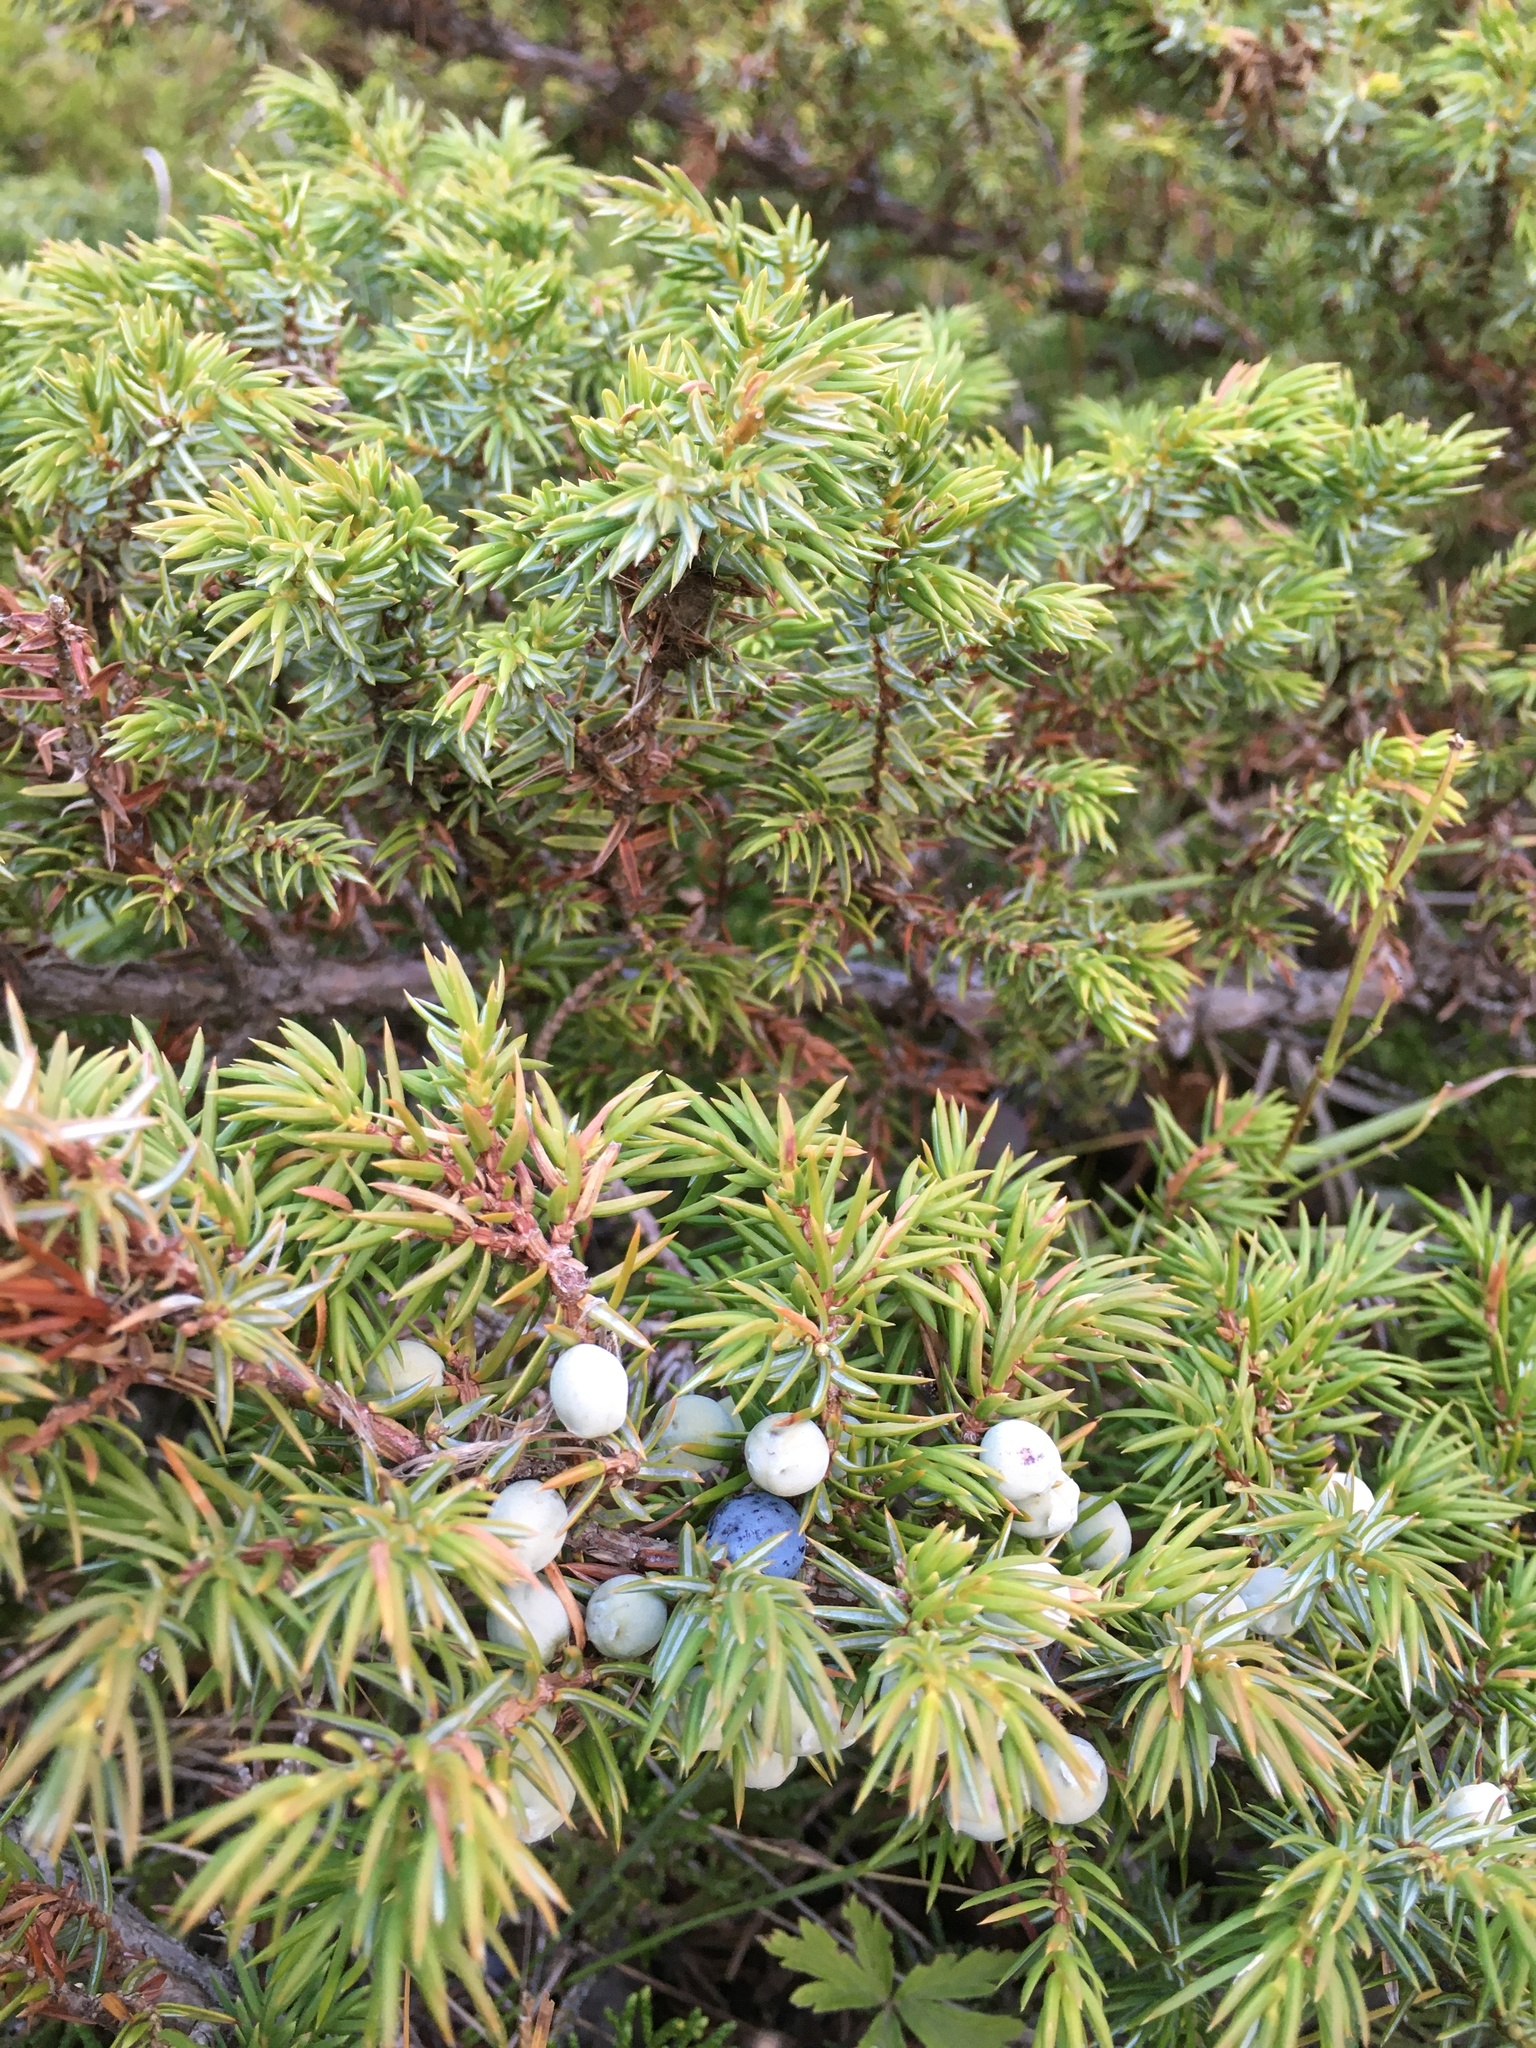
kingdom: Plantae
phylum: Tracheophyta
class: Pinopsida
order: Pinales
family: Cupressaceae
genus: Juniperus
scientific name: Juniperus communis
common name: Common juniper
